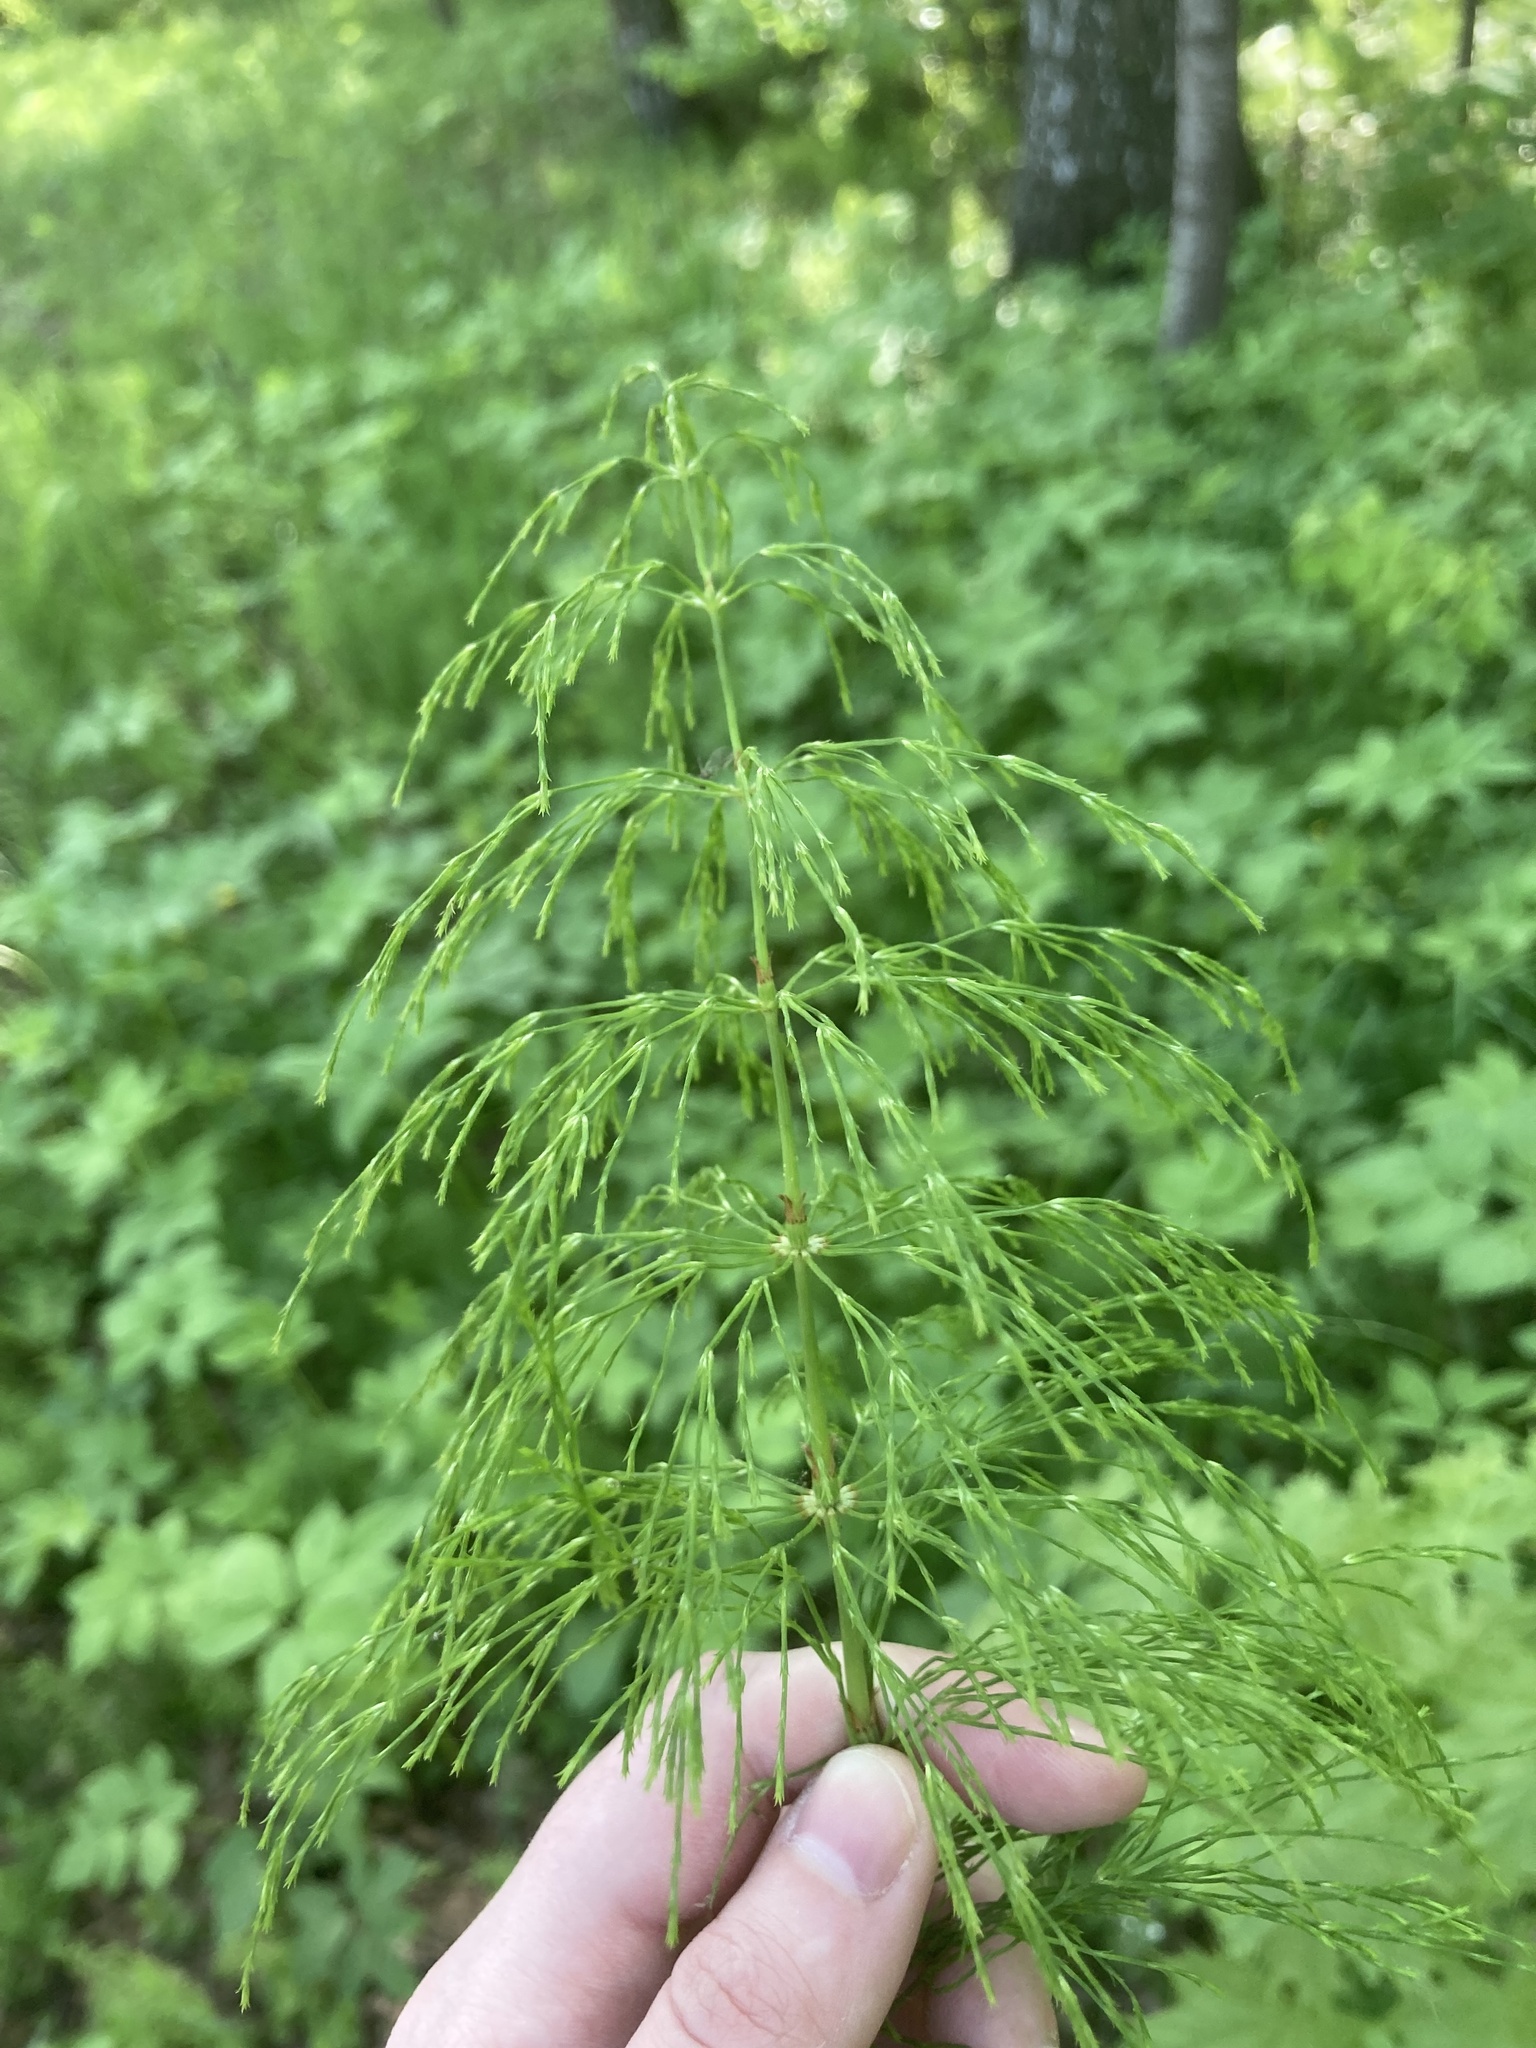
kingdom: Plantae
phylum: Tracheophyta
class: Polypodiopsida
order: Equisetales
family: Equisetaceae
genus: Equisetum
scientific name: Equisetum sylvaticum
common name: Wood horsetail
